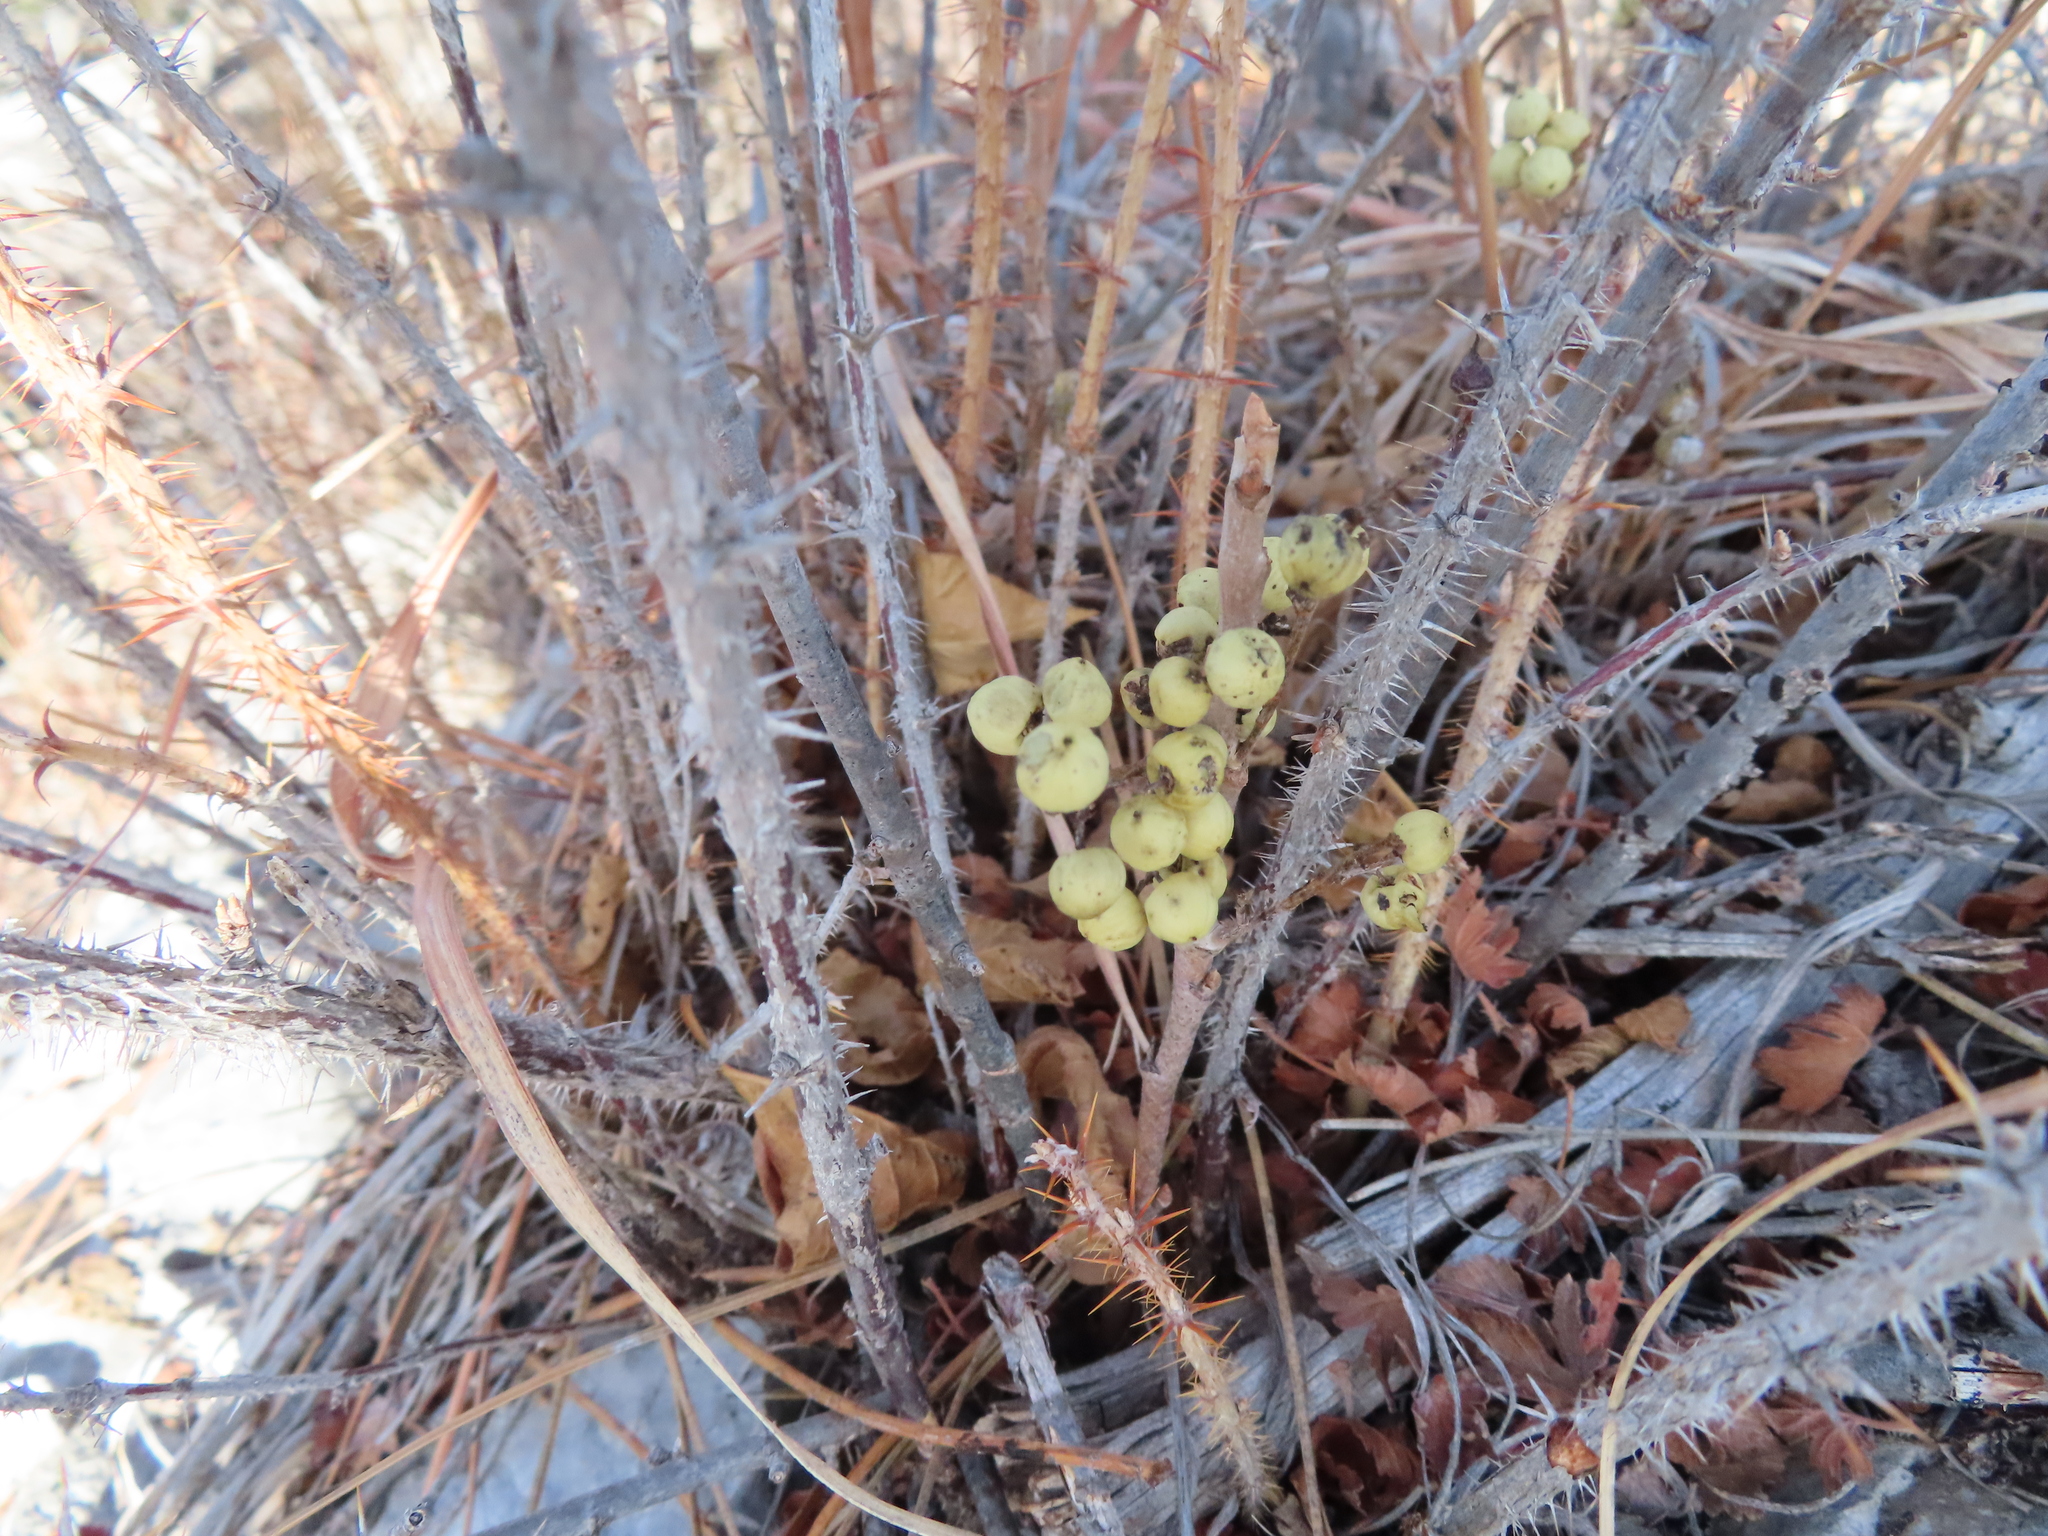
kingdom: Plantae
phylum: Tracheophyta
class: Magnoliopsida
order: Sapindales
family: Anacardiaceae
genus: Toxicodendron
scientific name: Toxicodendron rydbergii
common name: Rydberg's poison-ivy
